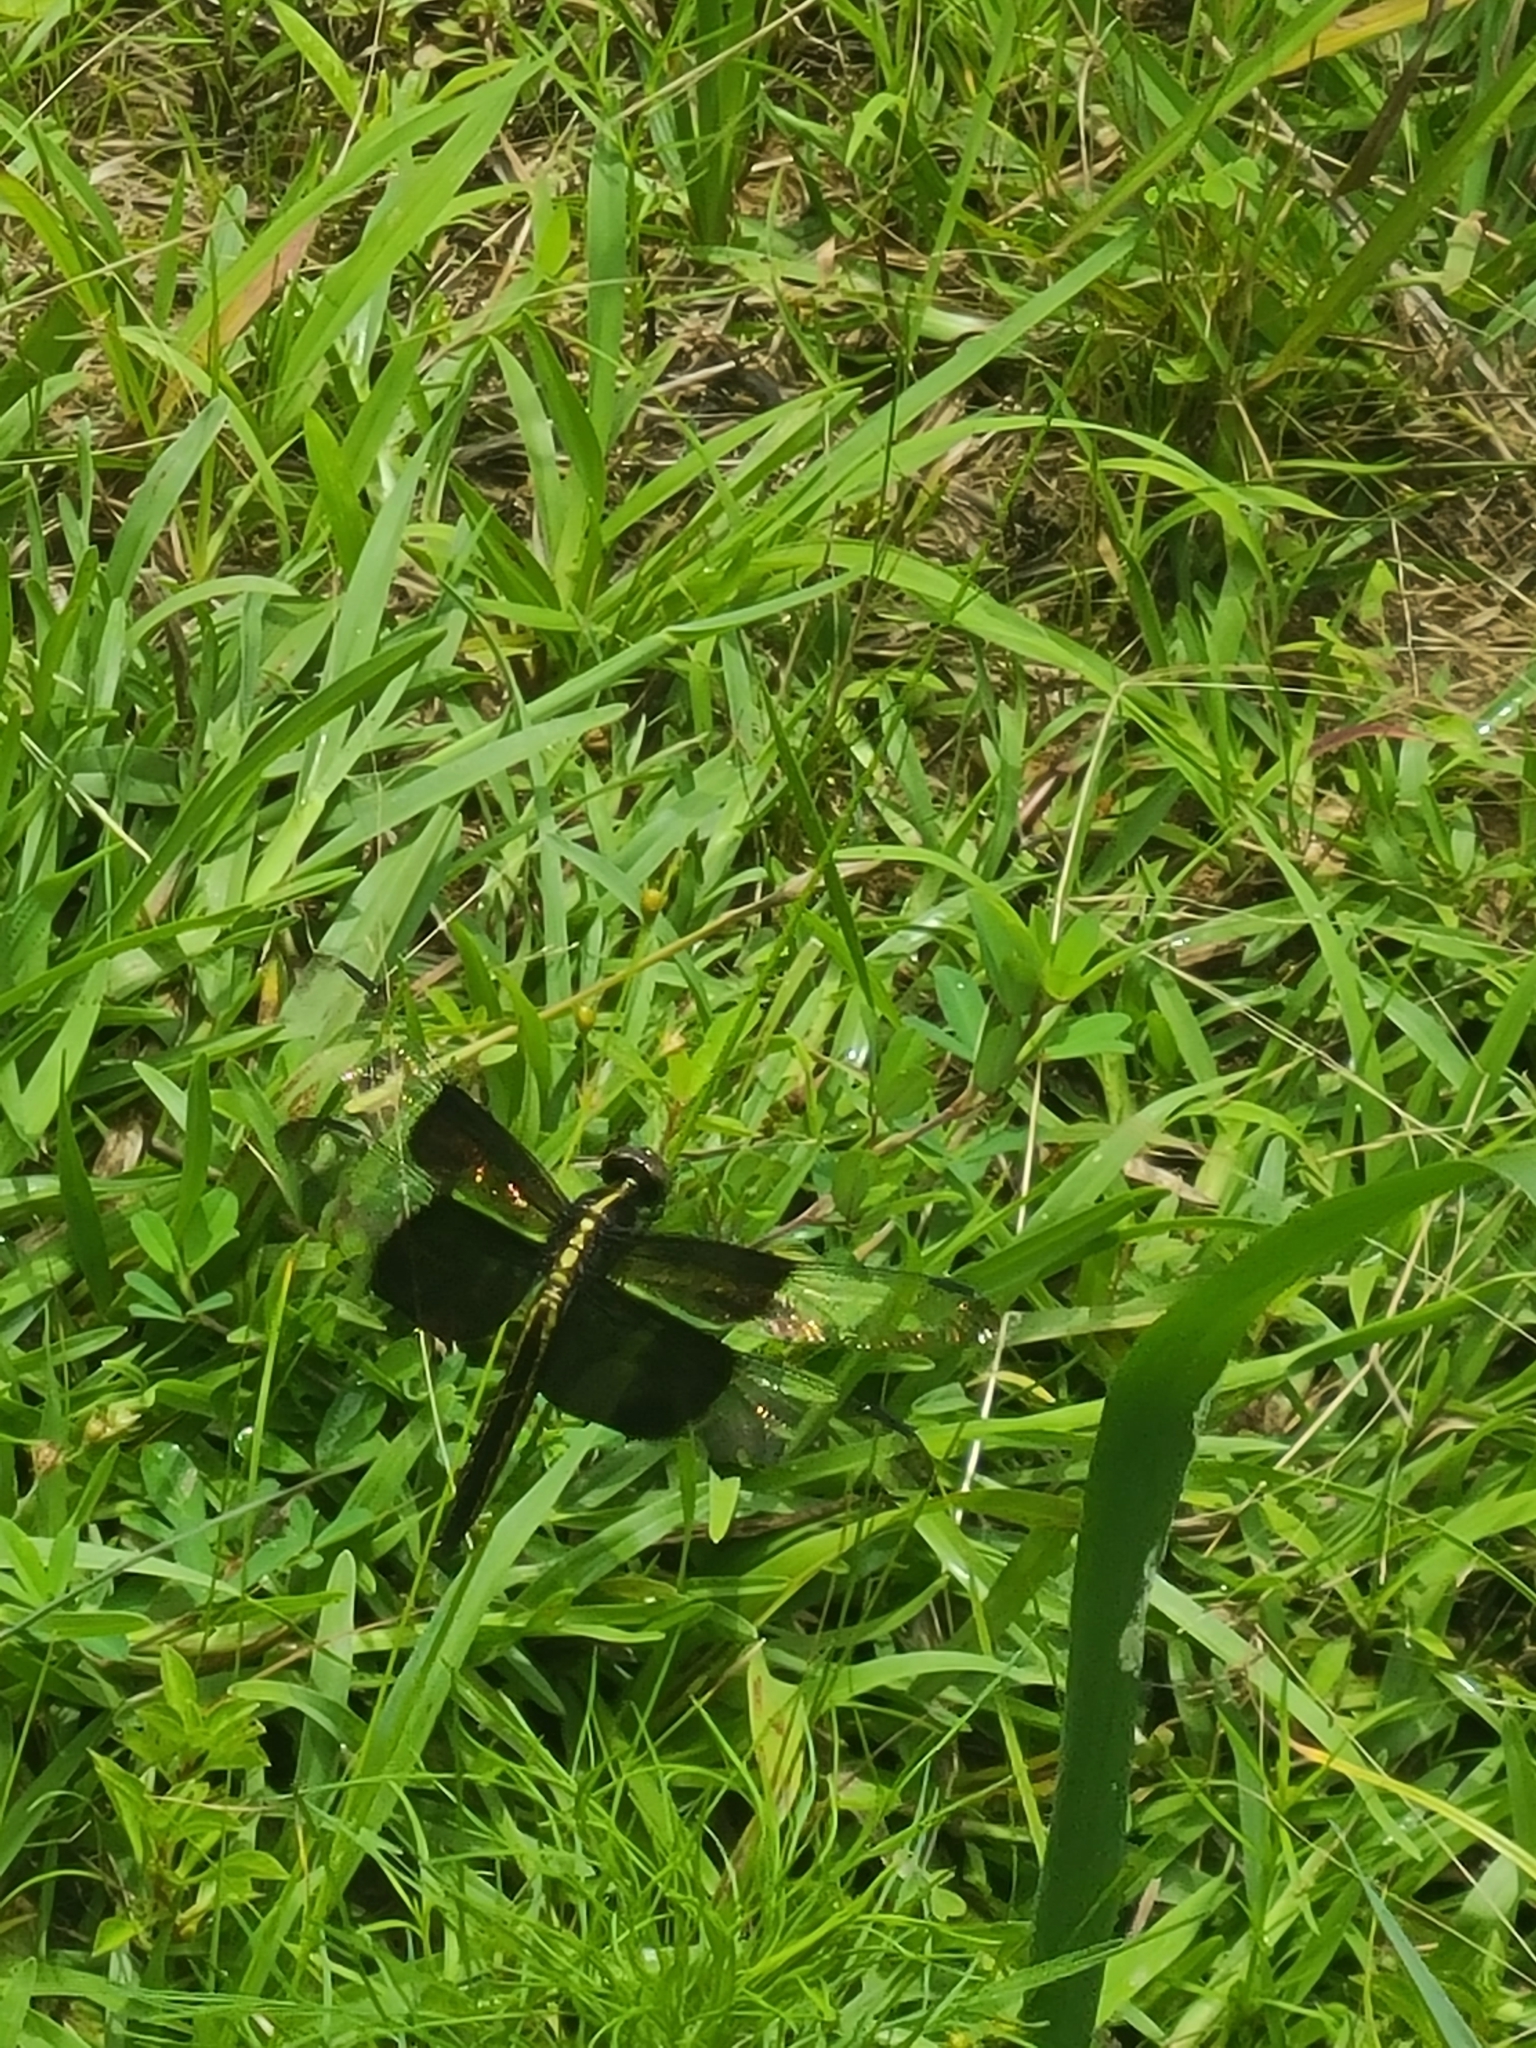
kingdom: Animalia
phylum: Arthropoda
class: Insecta
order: Odonata
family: Libellulidae
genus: Libellula
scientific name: Libellula luctuosa
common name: Widow skimmer
